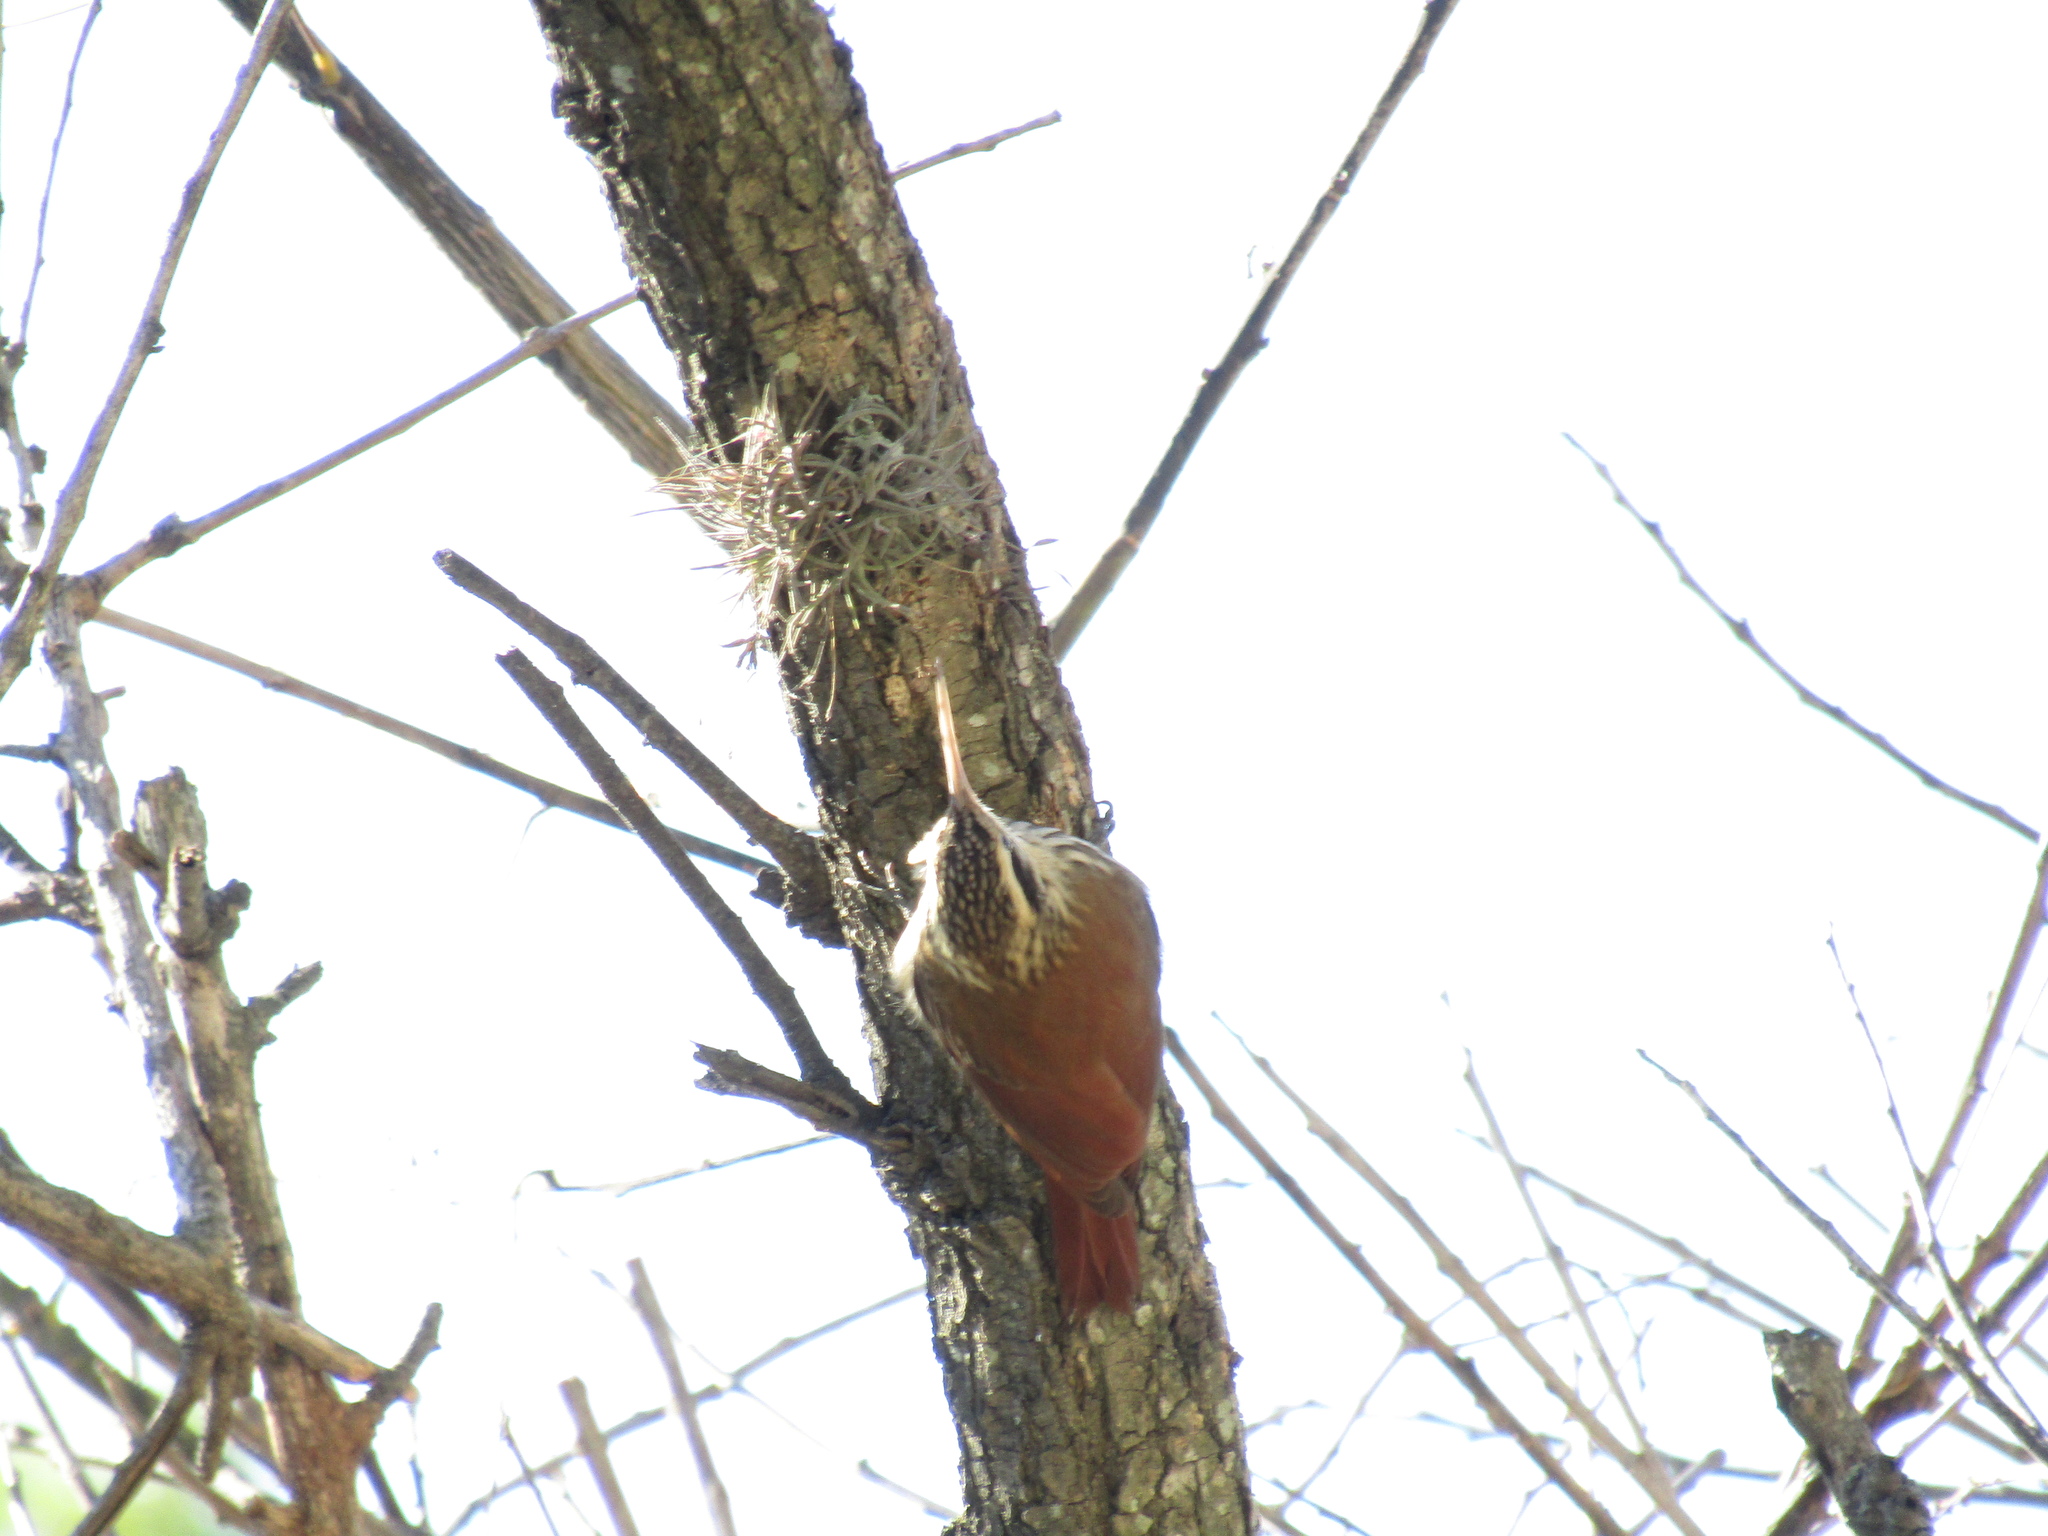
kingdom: Animalia
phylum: Chordata
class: Aves
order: Passeriformes
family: Furnariidae
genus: Lepidocolaptes
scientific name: Lepidocolaptes angustirostris
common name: Narrow-billed woodcreeper
